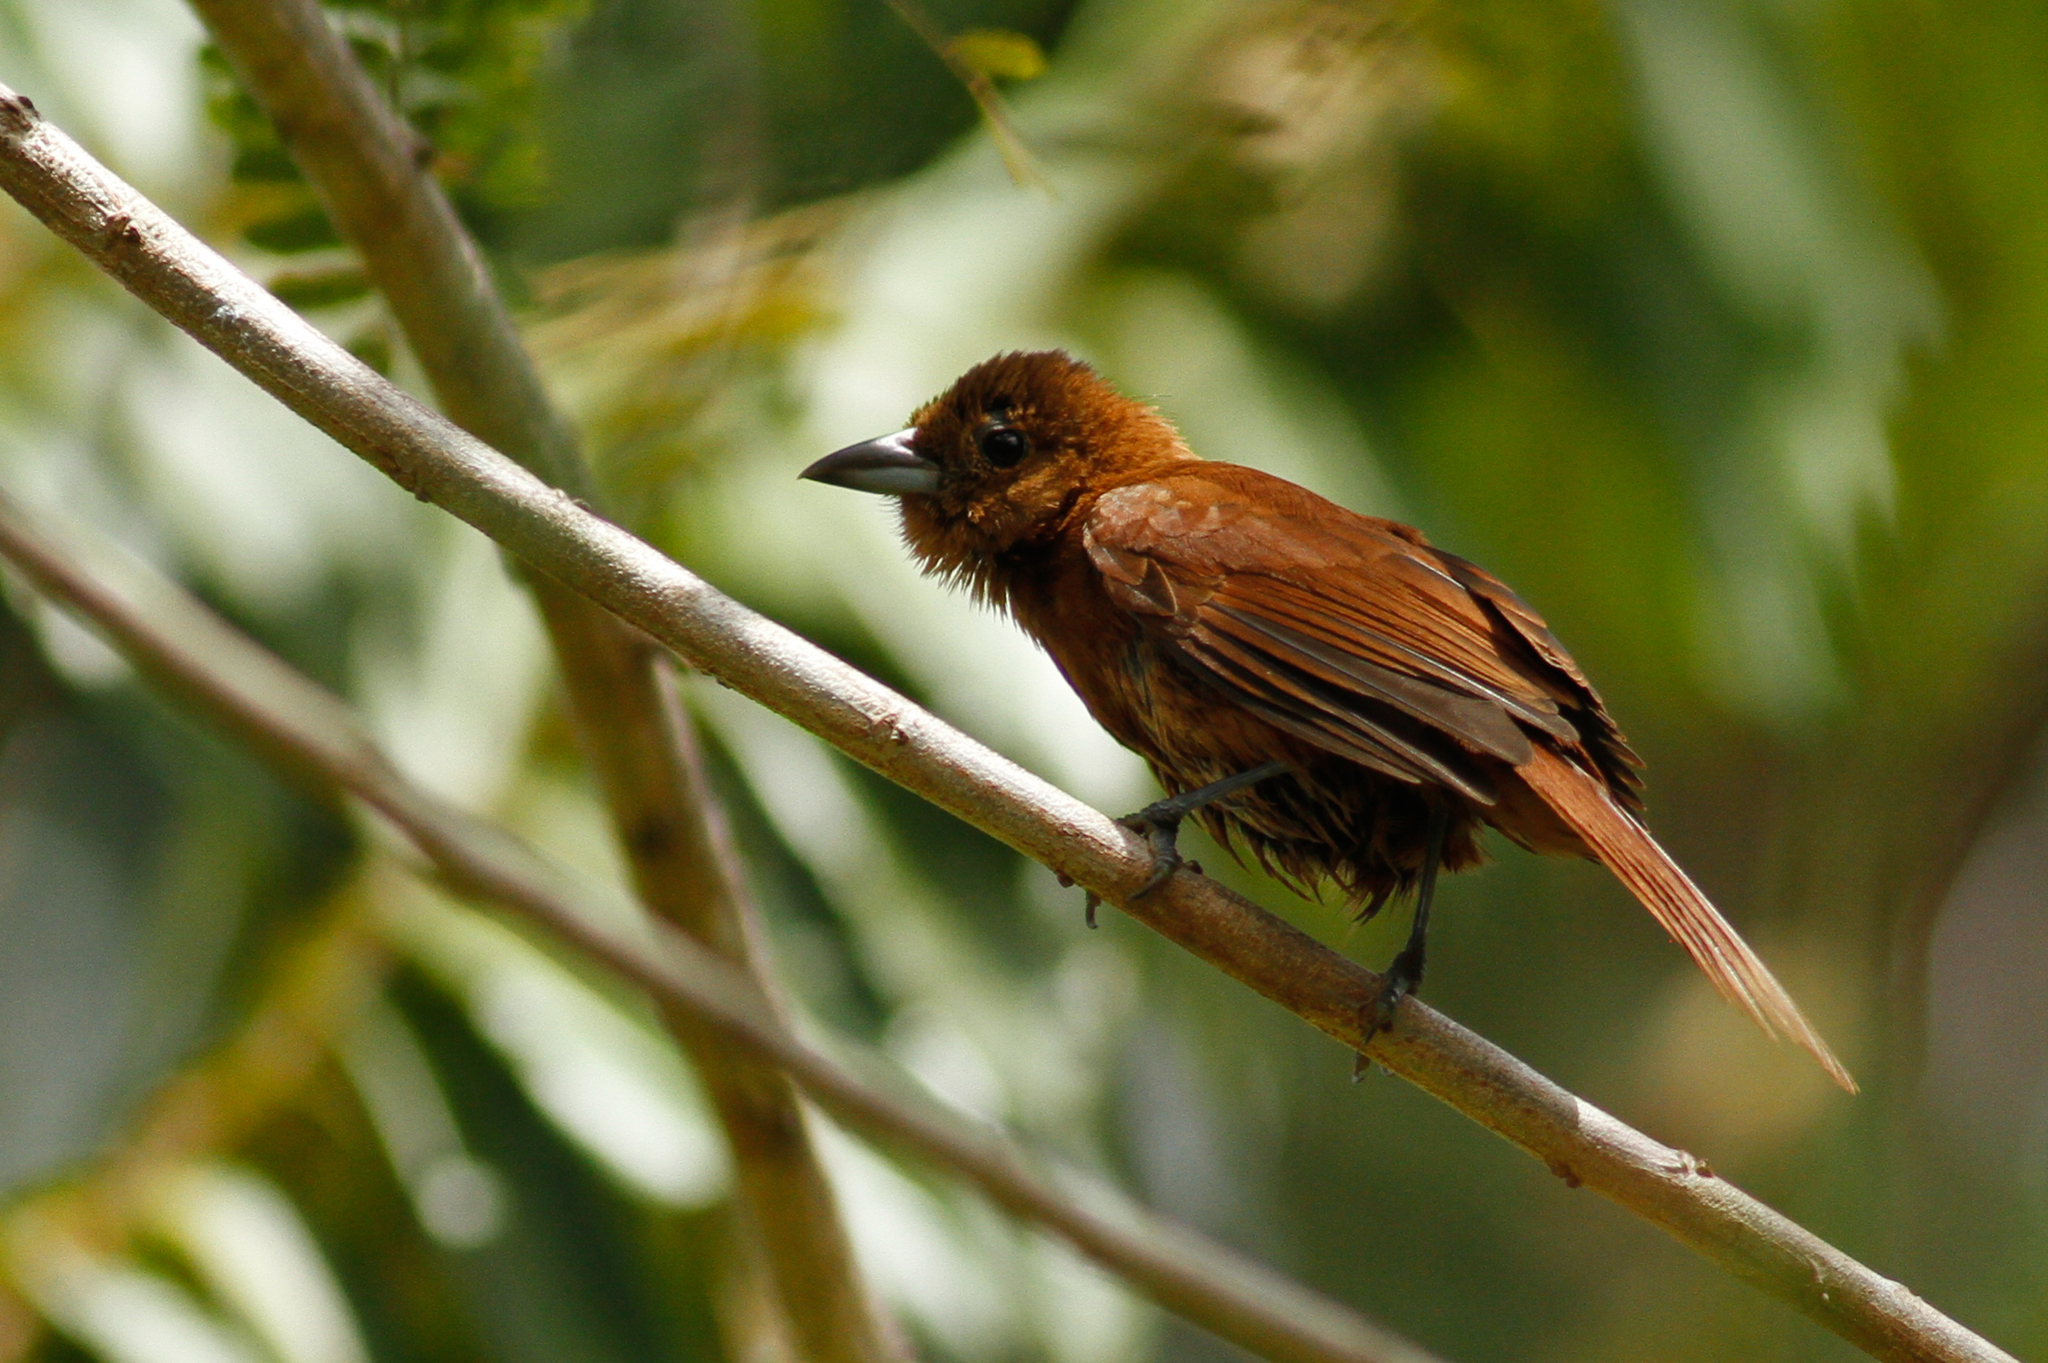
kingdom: Animalia
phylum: Chordata
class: Aves
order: Passeriformes
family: Thraupidae
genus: Tachyphonus
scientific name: Tachyphonus rufus
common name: White-lined tanager
